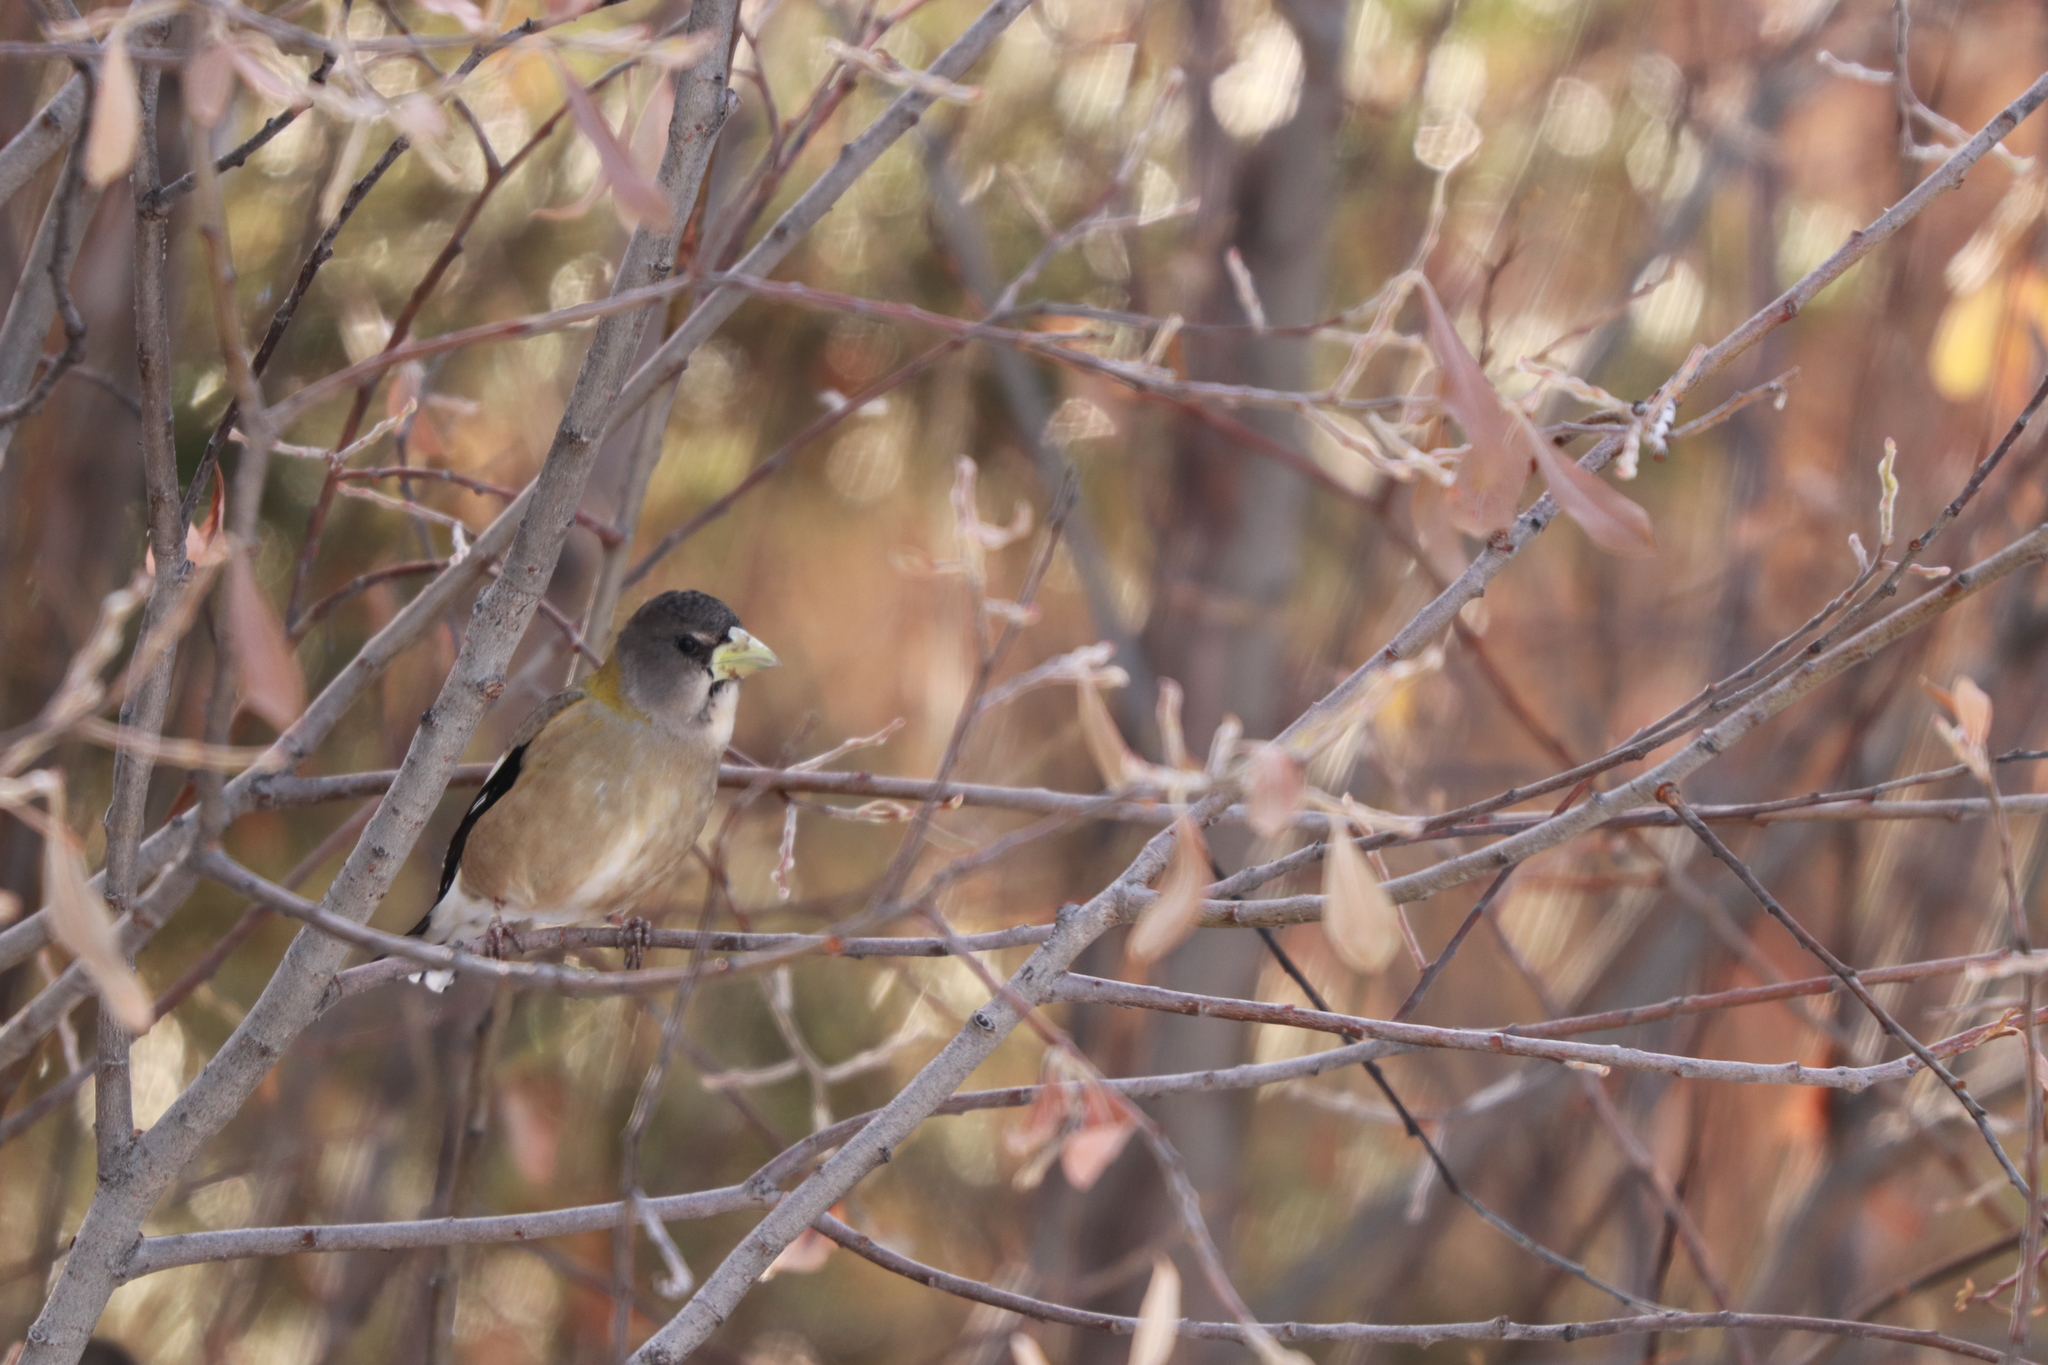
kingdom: Animalia
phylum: Chordata
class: Aves
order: Passeriformes
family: Fringillidae
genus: Hesperiphona
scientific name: Hesperiphona vespertina
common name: Evening grosbeak
